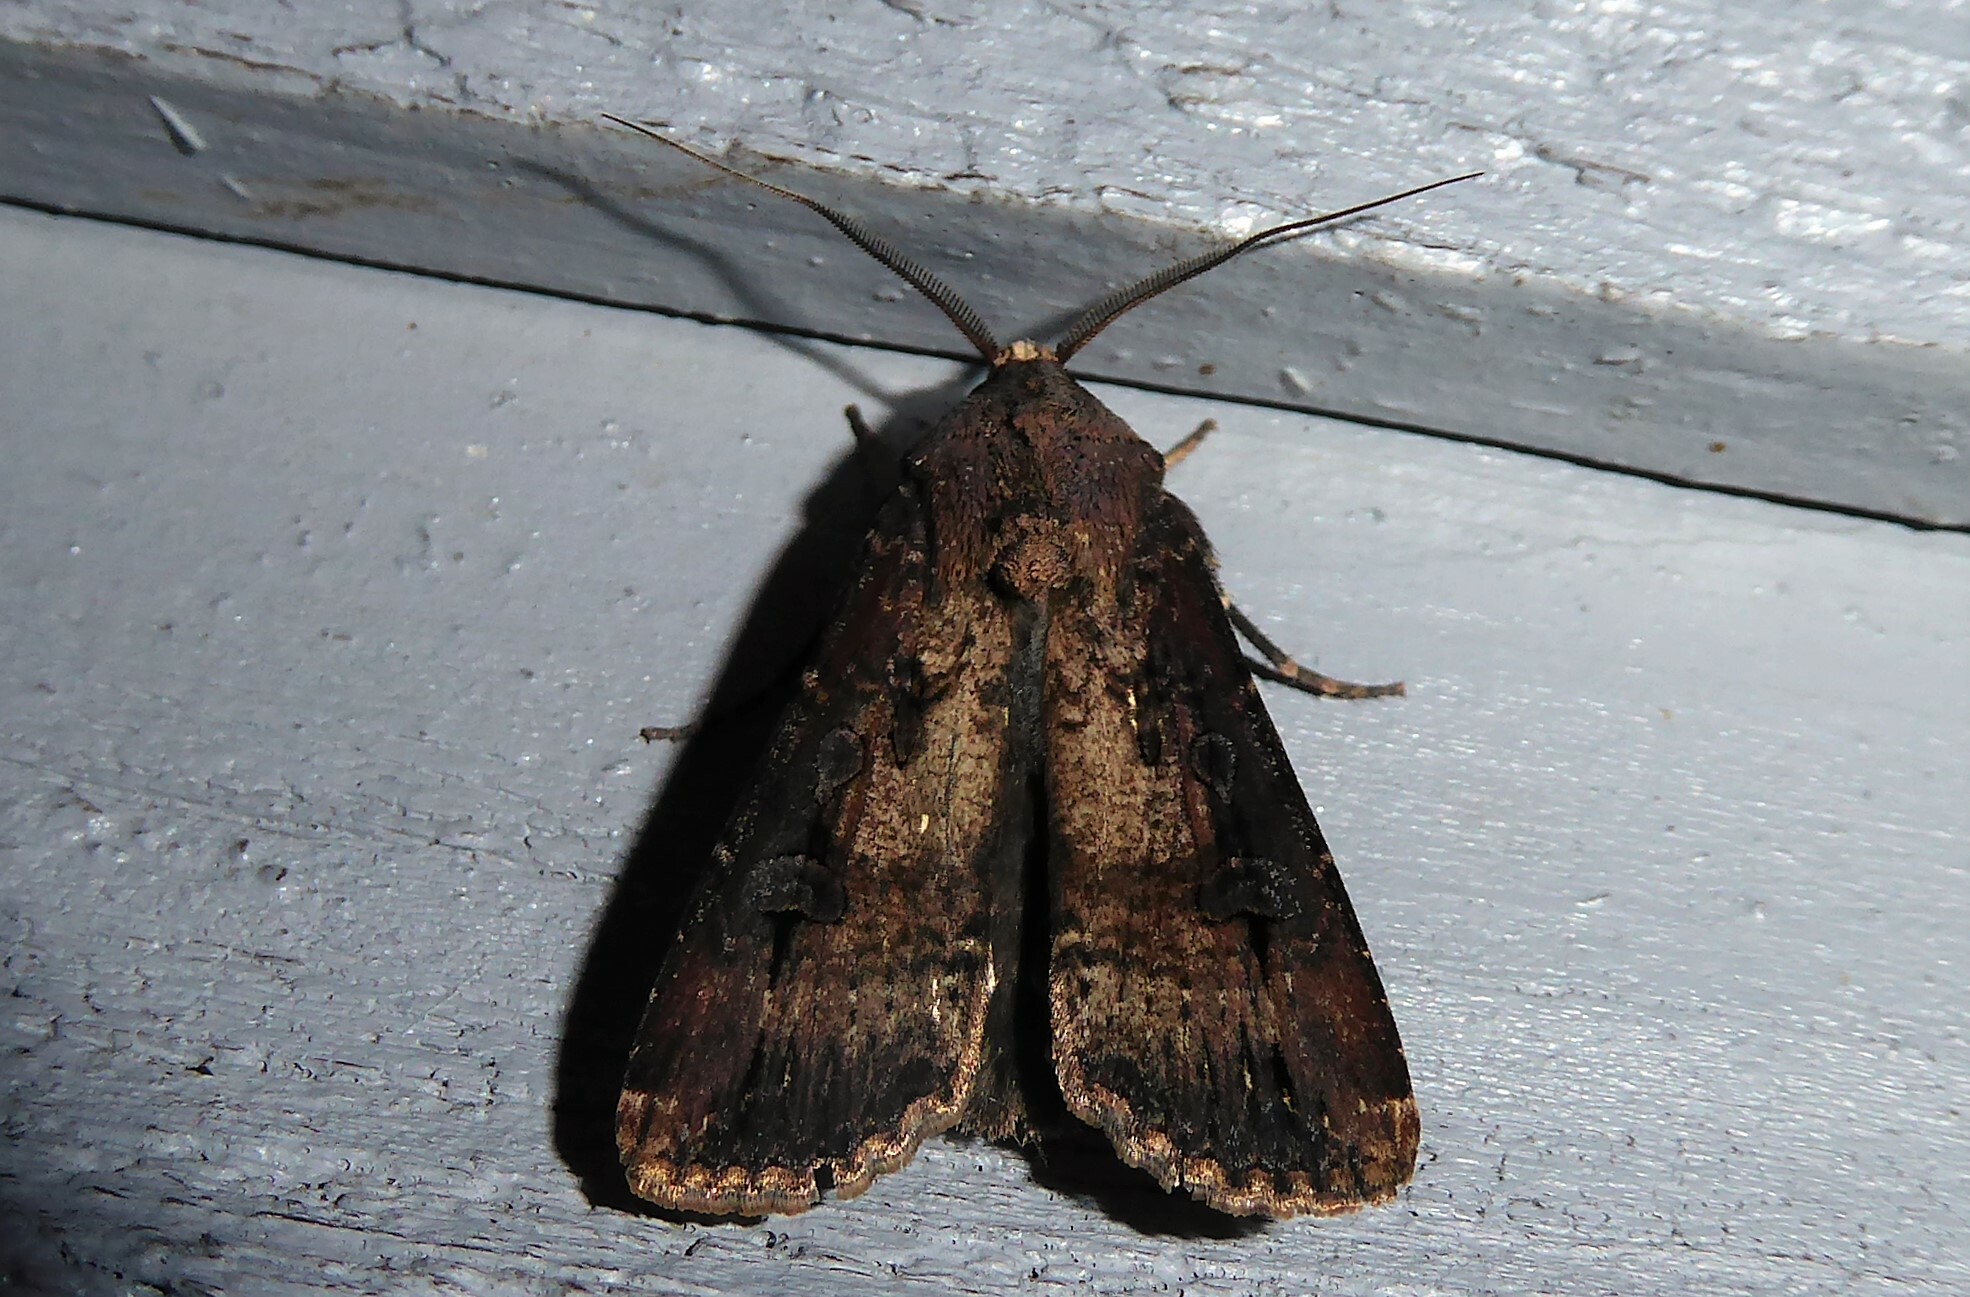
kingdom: Animalia
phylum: Arthropoda
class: Insecta
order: Lepidoptera
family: Noctuidae
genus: Agrotis
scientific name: Agrotis ipsilon
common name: Dark sword-grass
